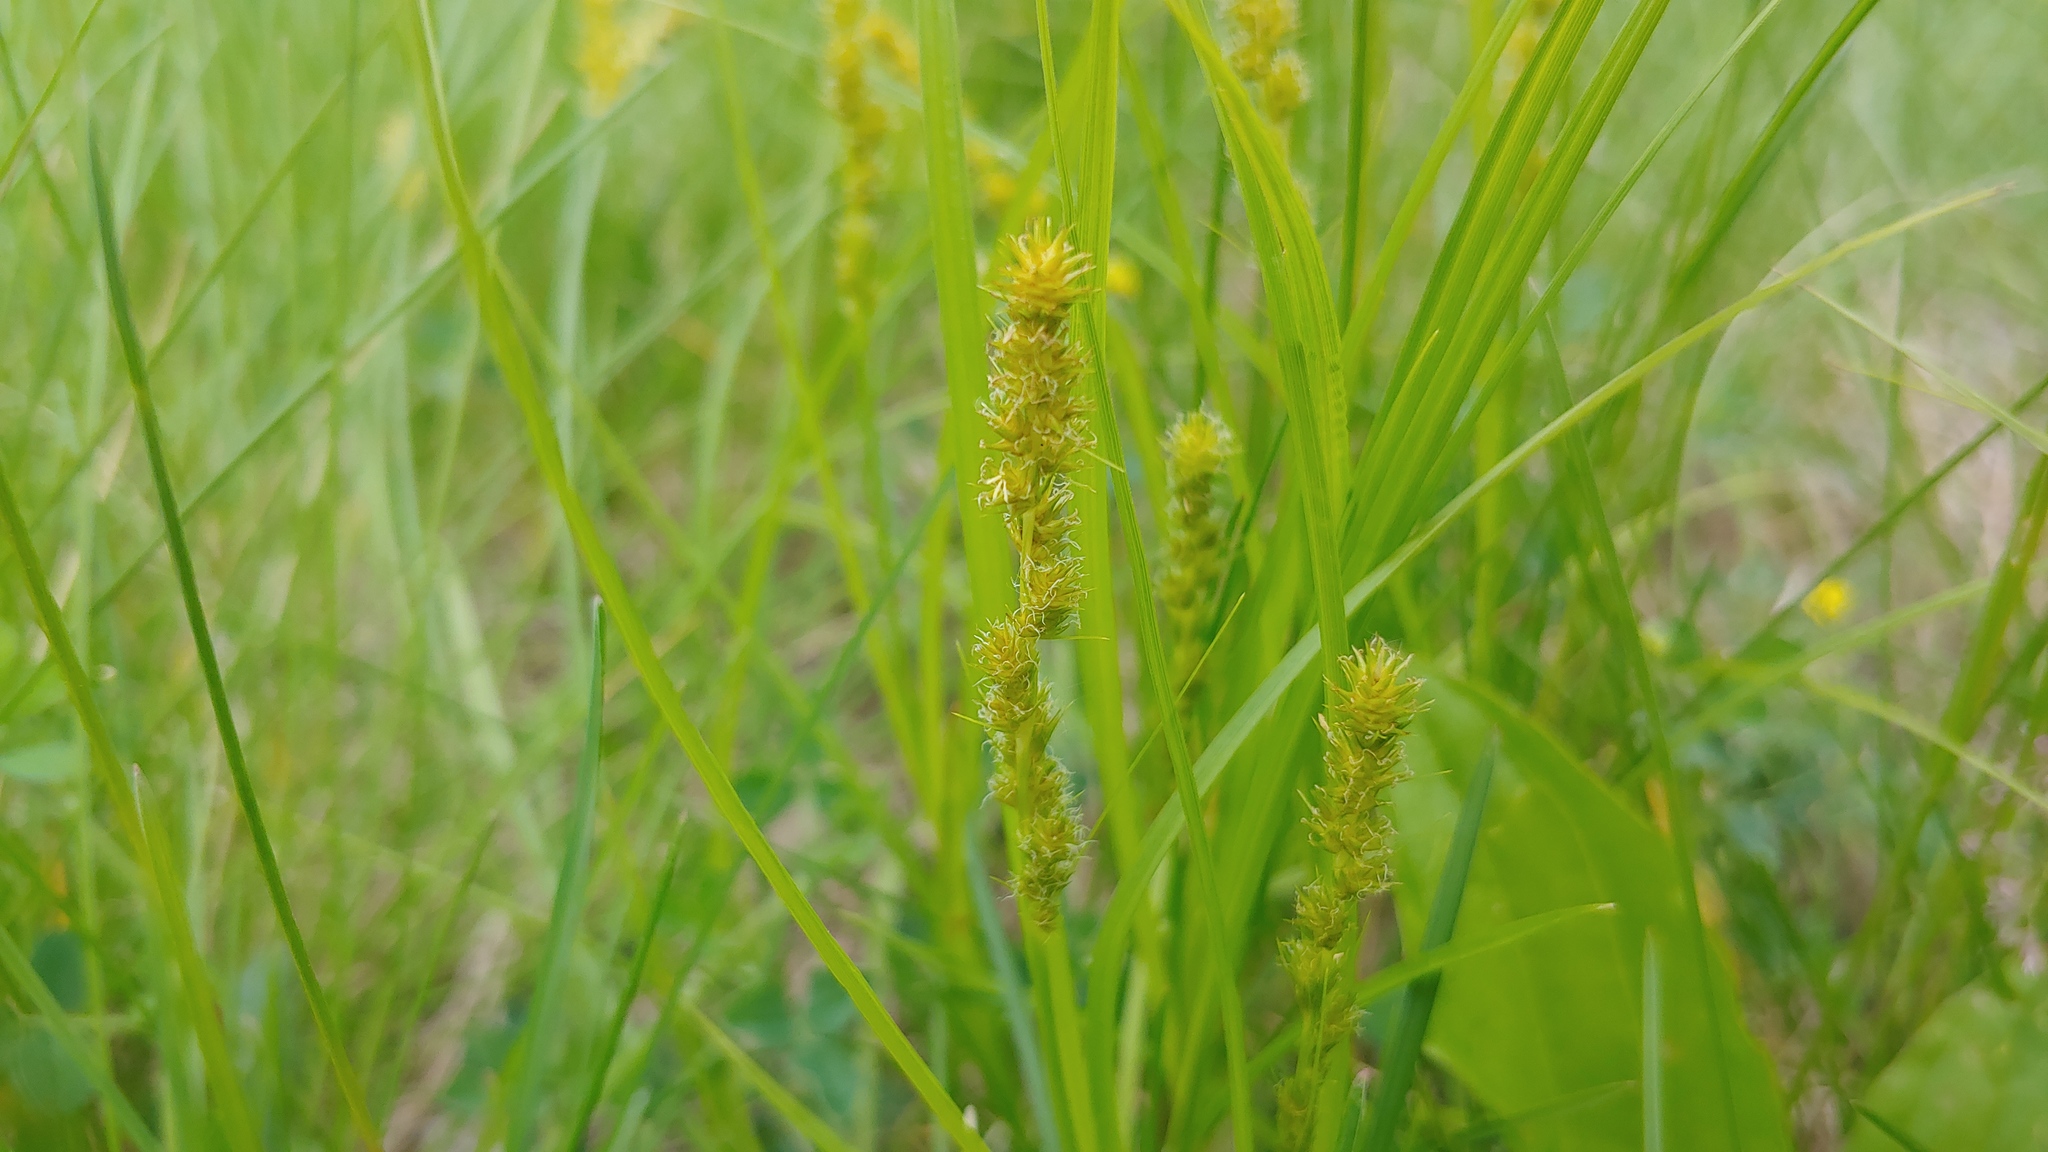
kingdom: Plantae
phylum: Tracheophyta
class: Liliopsida
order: Poales
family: Cyperaceae
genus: Carex
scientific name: Carex vulpinoidea
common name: American fox-sedge
